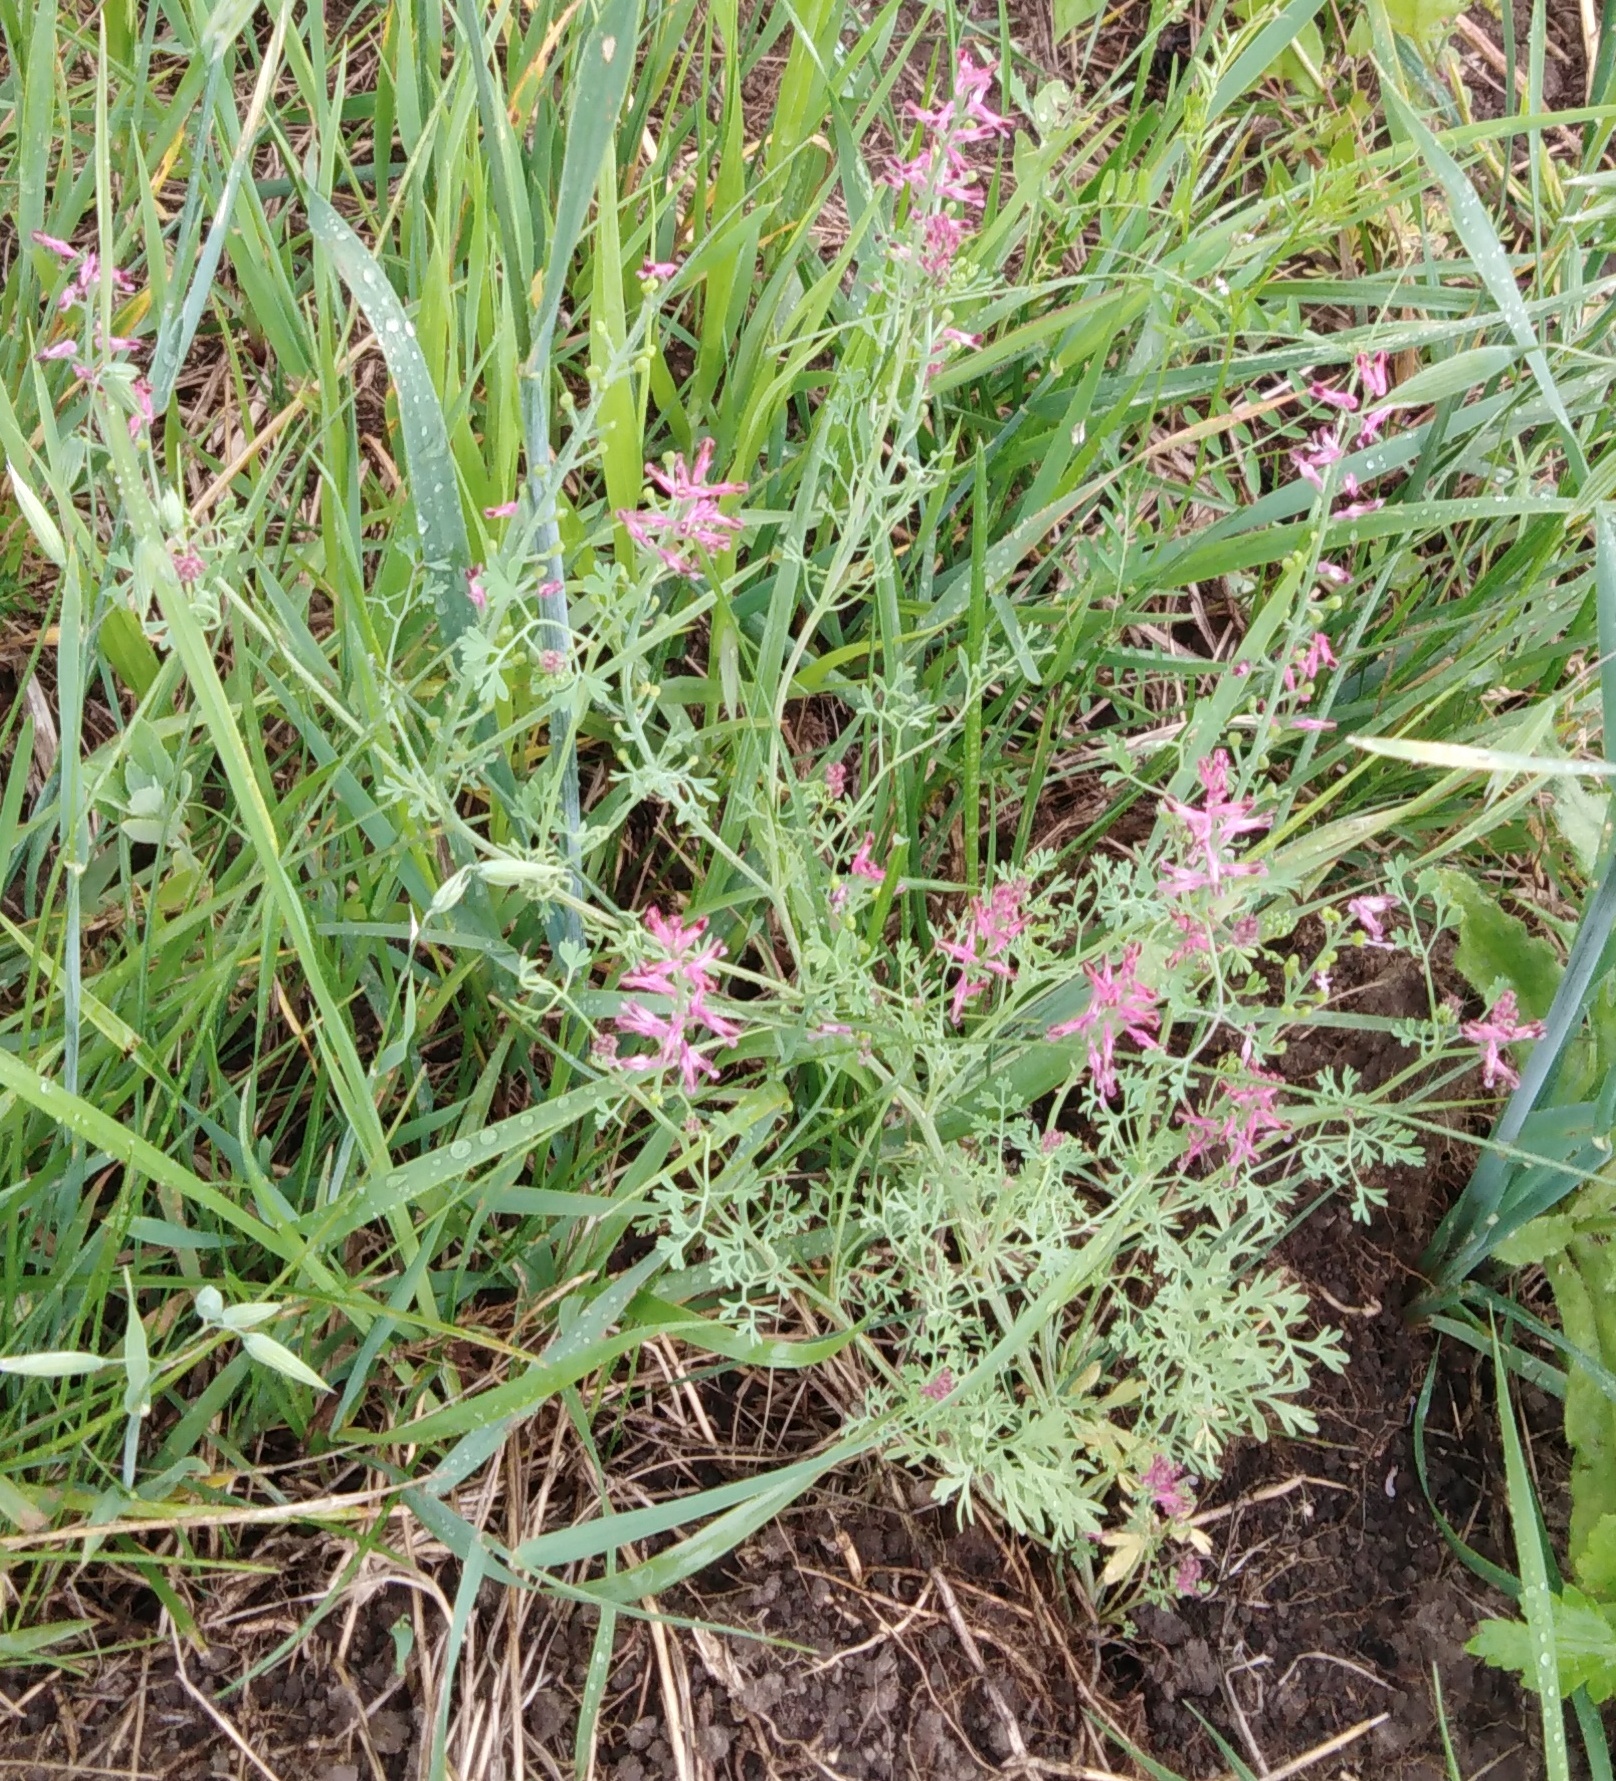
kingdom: Plantae
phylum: Tracheophyta
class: Magnoliopsida
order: Ranunculales
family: Papaveraceae
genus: Fumaria
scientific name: Fumaria officinalis
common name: Common fumitory
